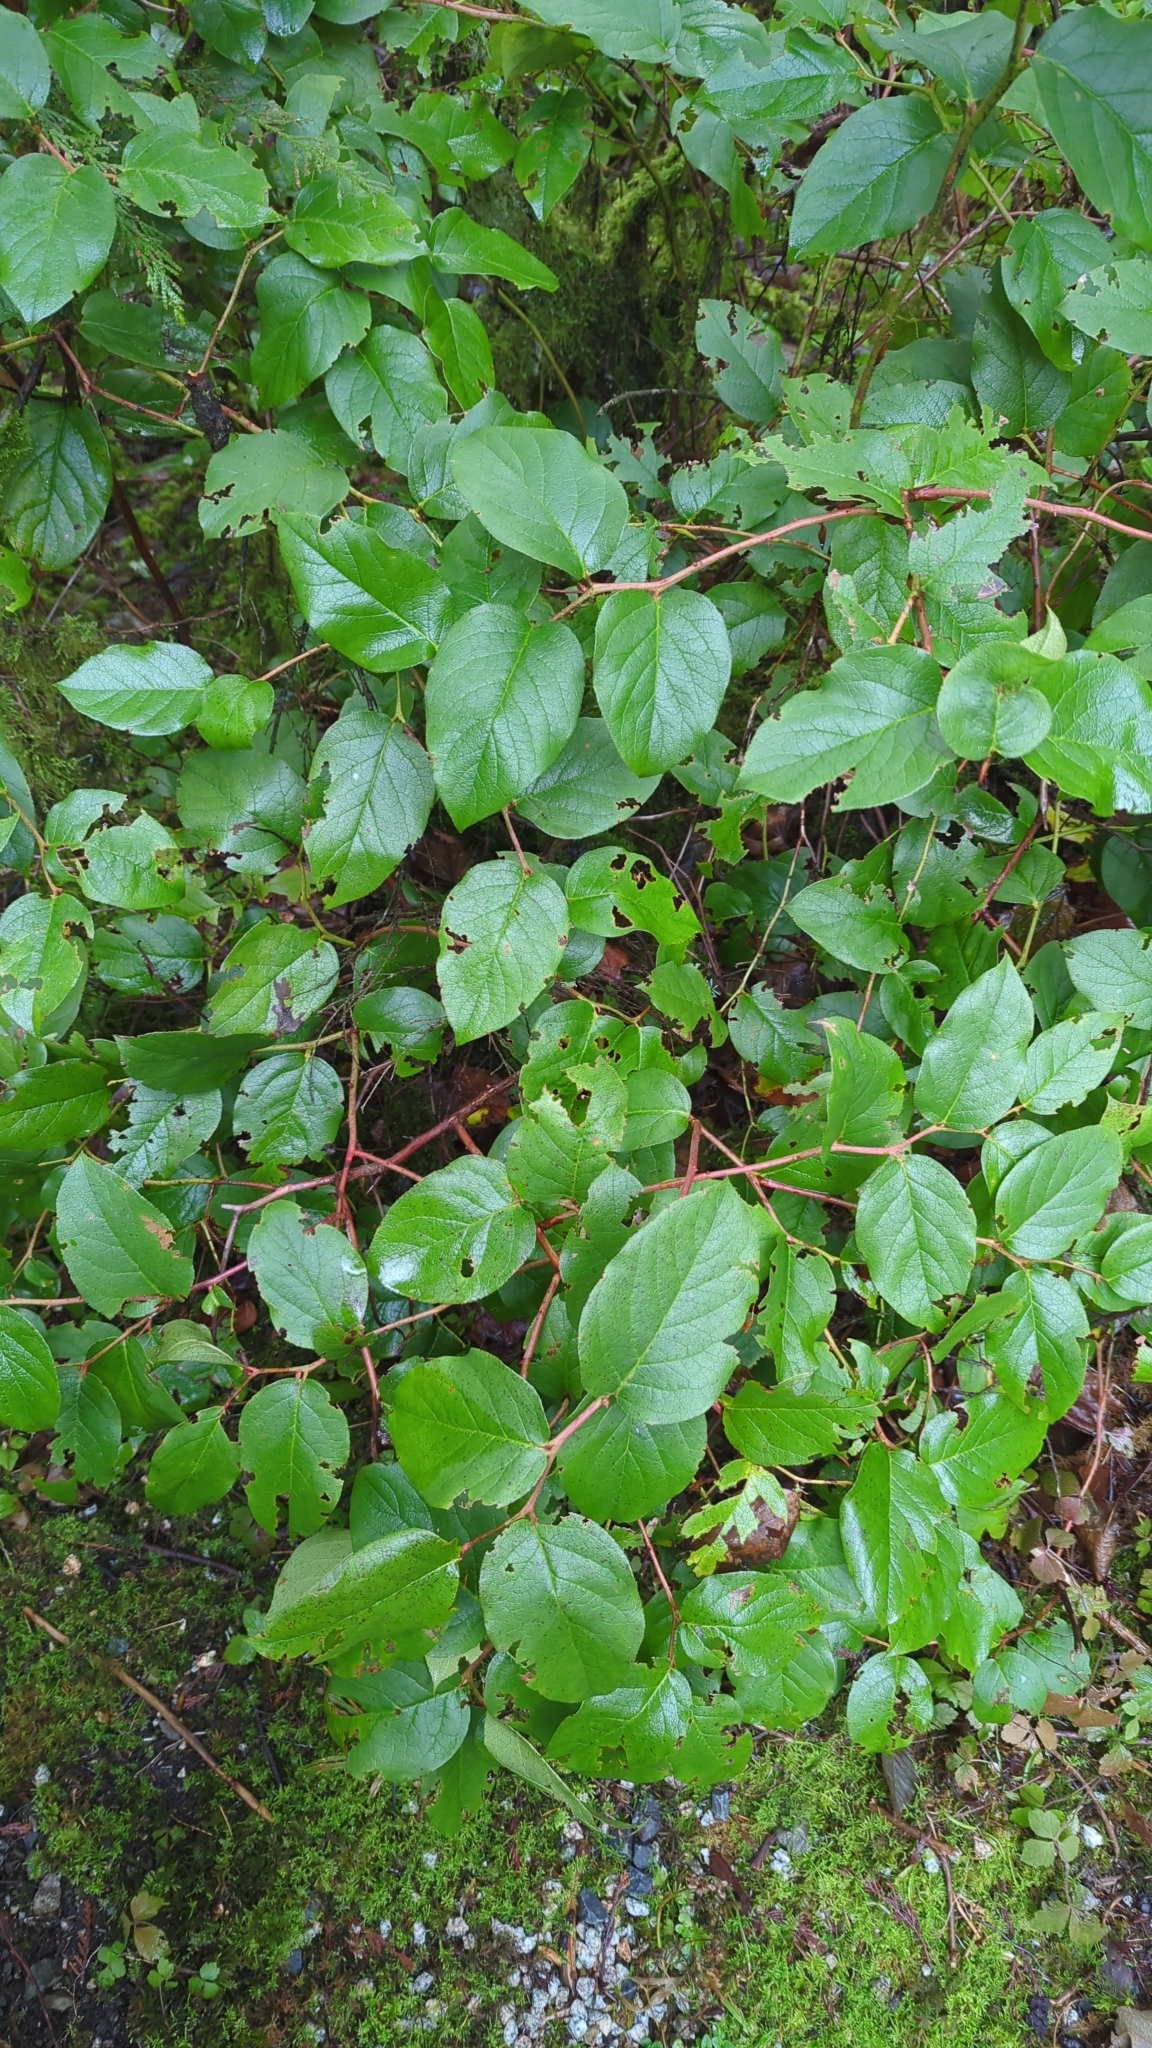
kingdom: Plantae
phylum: Tracheophyta
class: Magnoliopsida
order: Ericales
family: Ericaceae
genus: Gaultheria
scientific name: Gaultheria shallon
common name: Shallon
